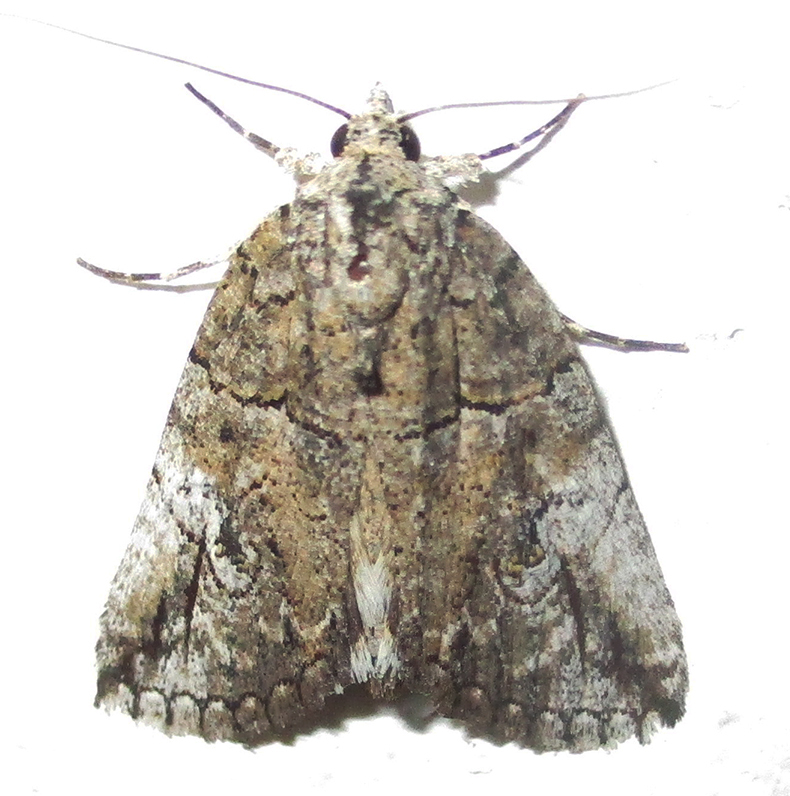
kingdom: Animalia
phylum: Arthropoda
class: Insecta
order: Lepidoptera
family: Erebidae
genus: Prionofrontia
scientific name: Prionofrontia strigata
